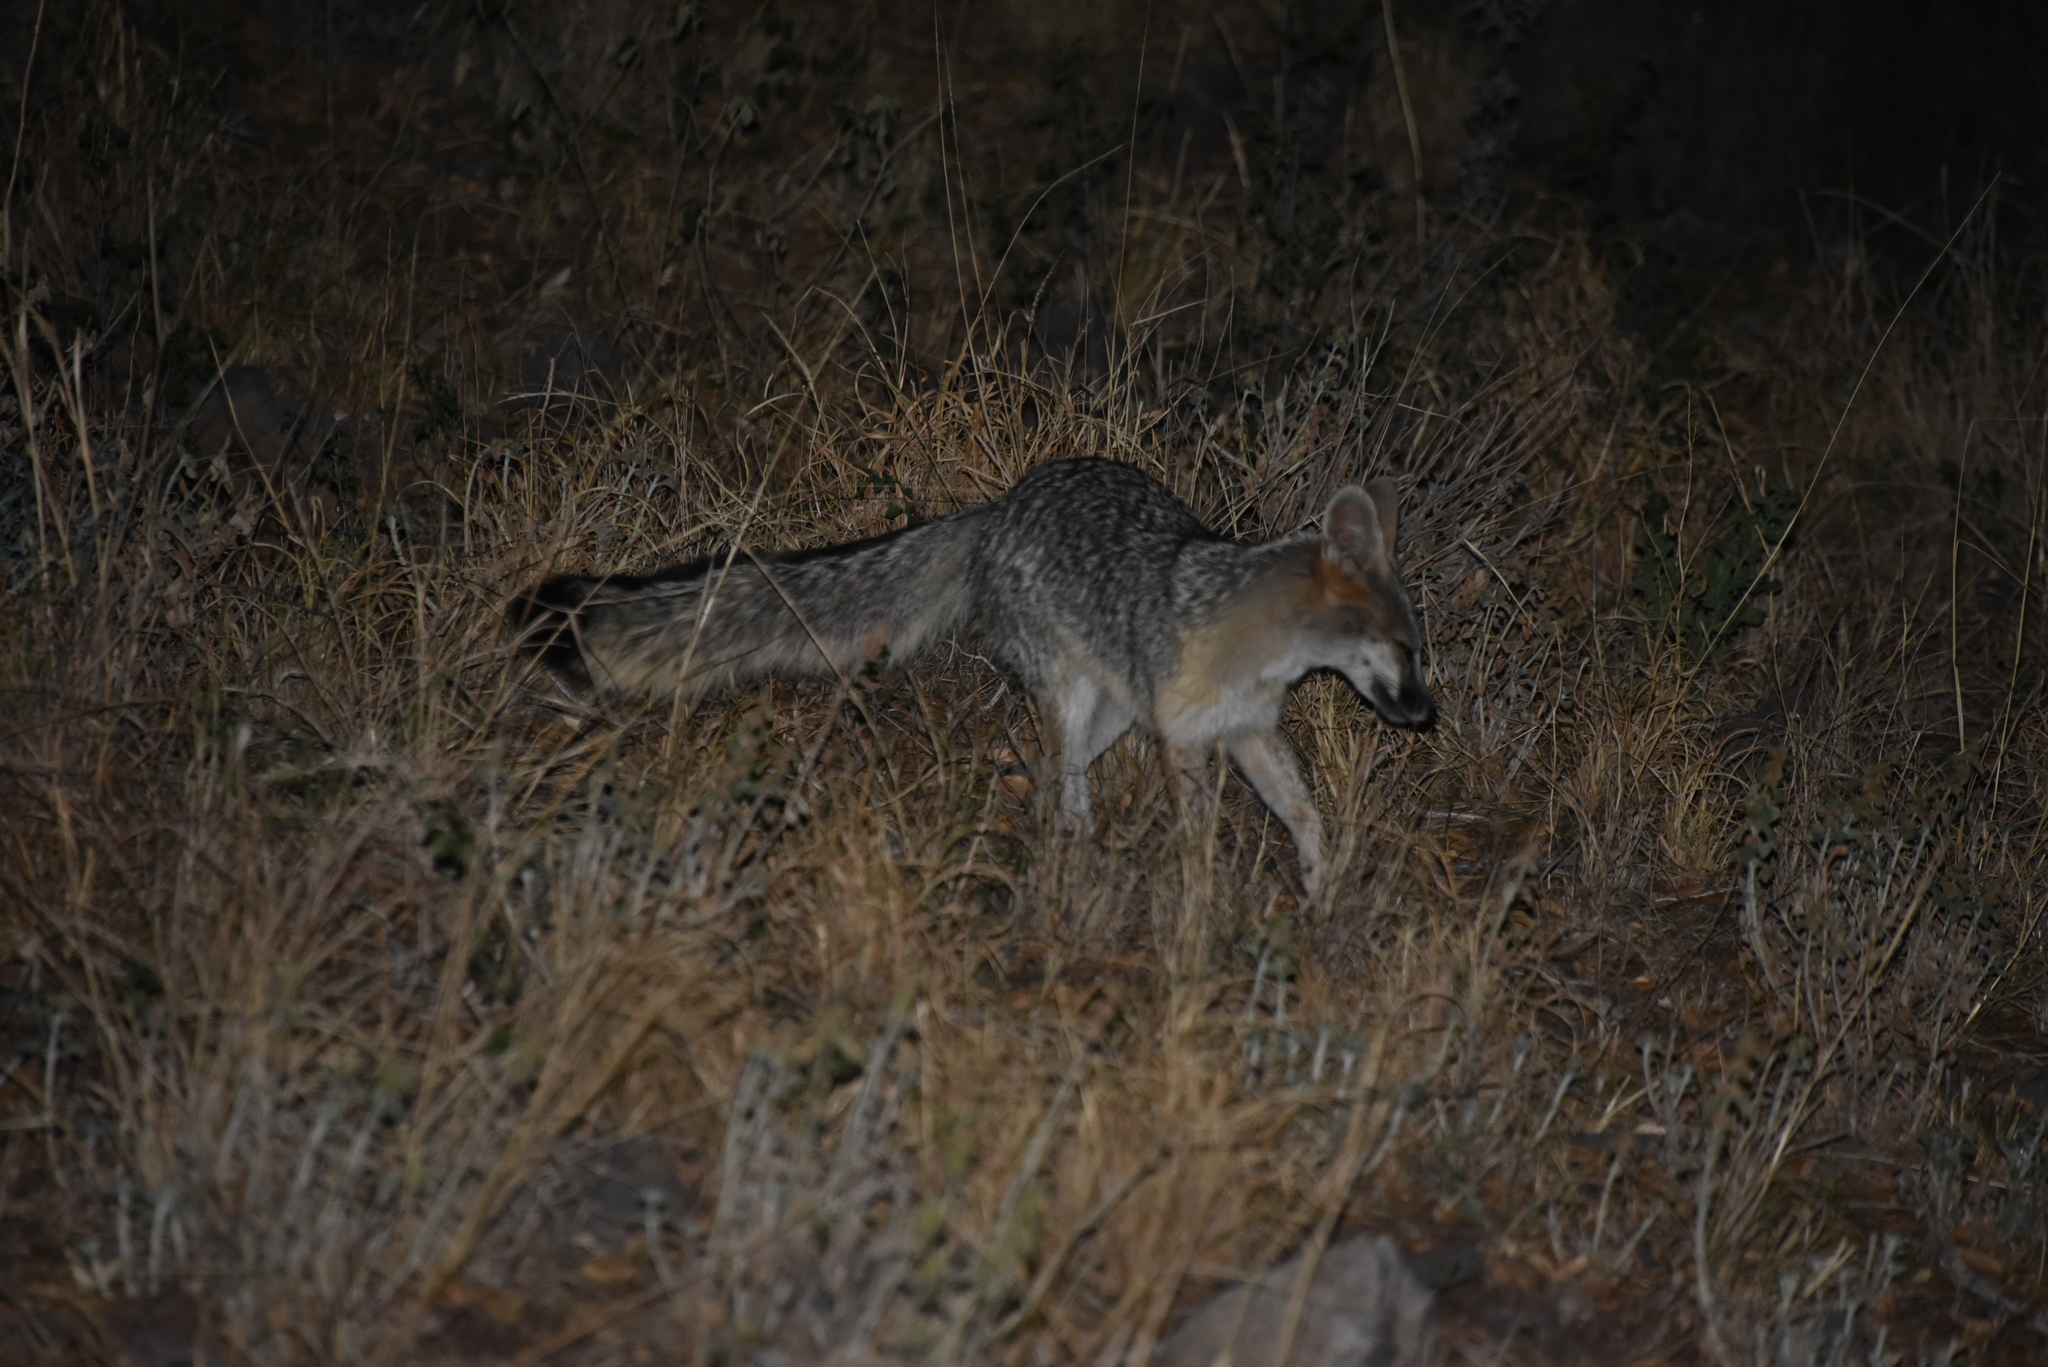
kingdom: Animalia
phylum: Chordata
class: Mammalia
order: Carnivora
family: Canidae
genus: Urocyon
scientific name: Urocyon cinereoargenteus
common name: Gray fox
